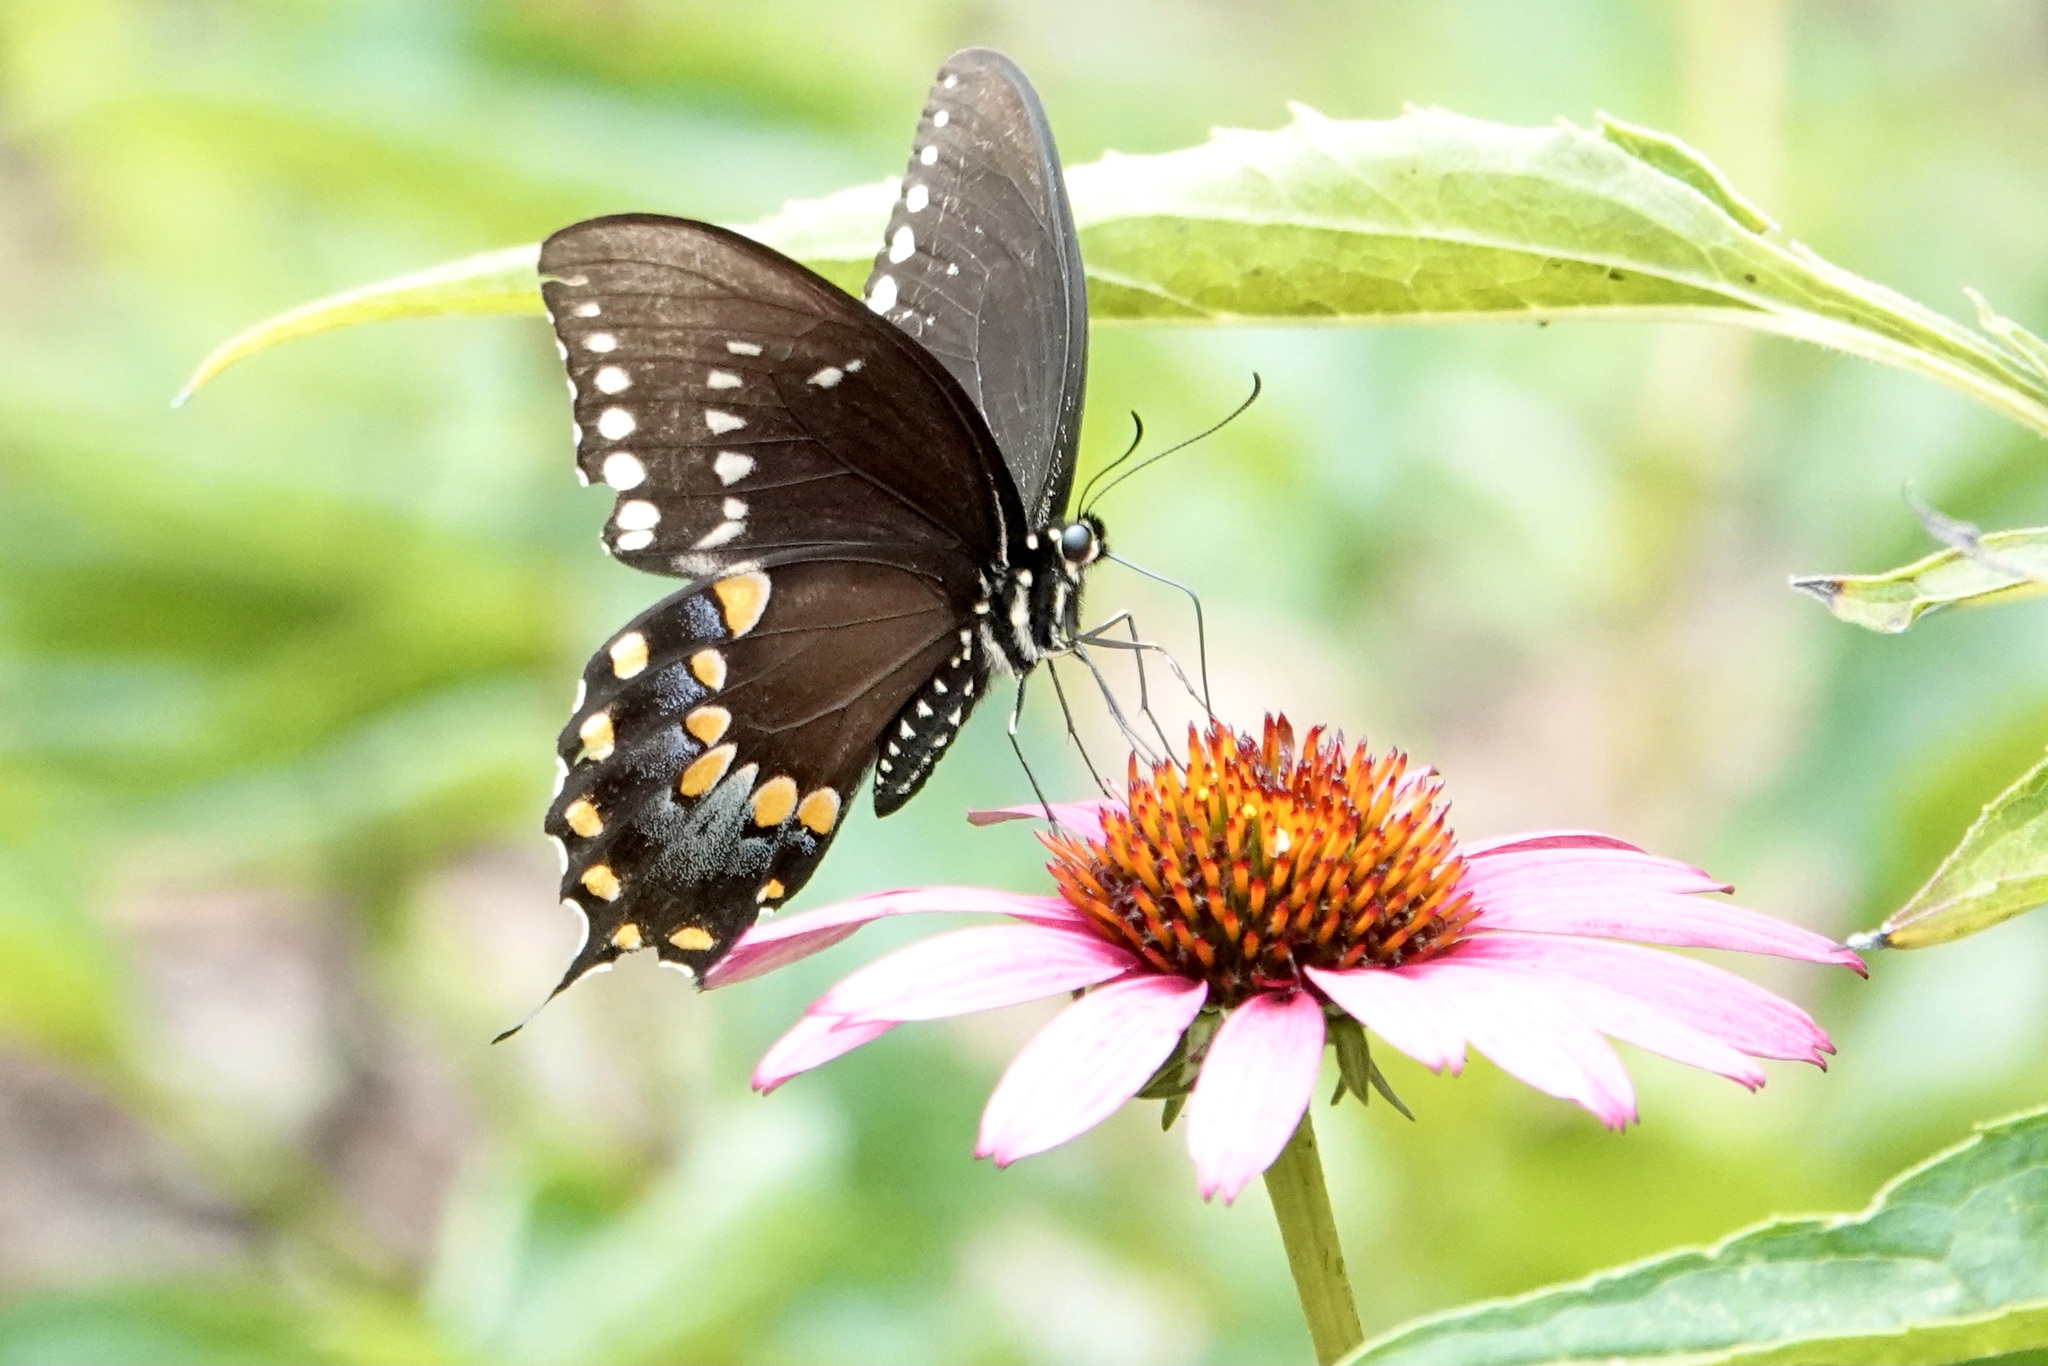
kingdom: Animalia
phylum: Arthropoda
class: Insecta
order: Lepidoptera
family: Papilionidae
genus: Papilio
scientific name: Papilio troilus
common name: Spicebush swallowtail
